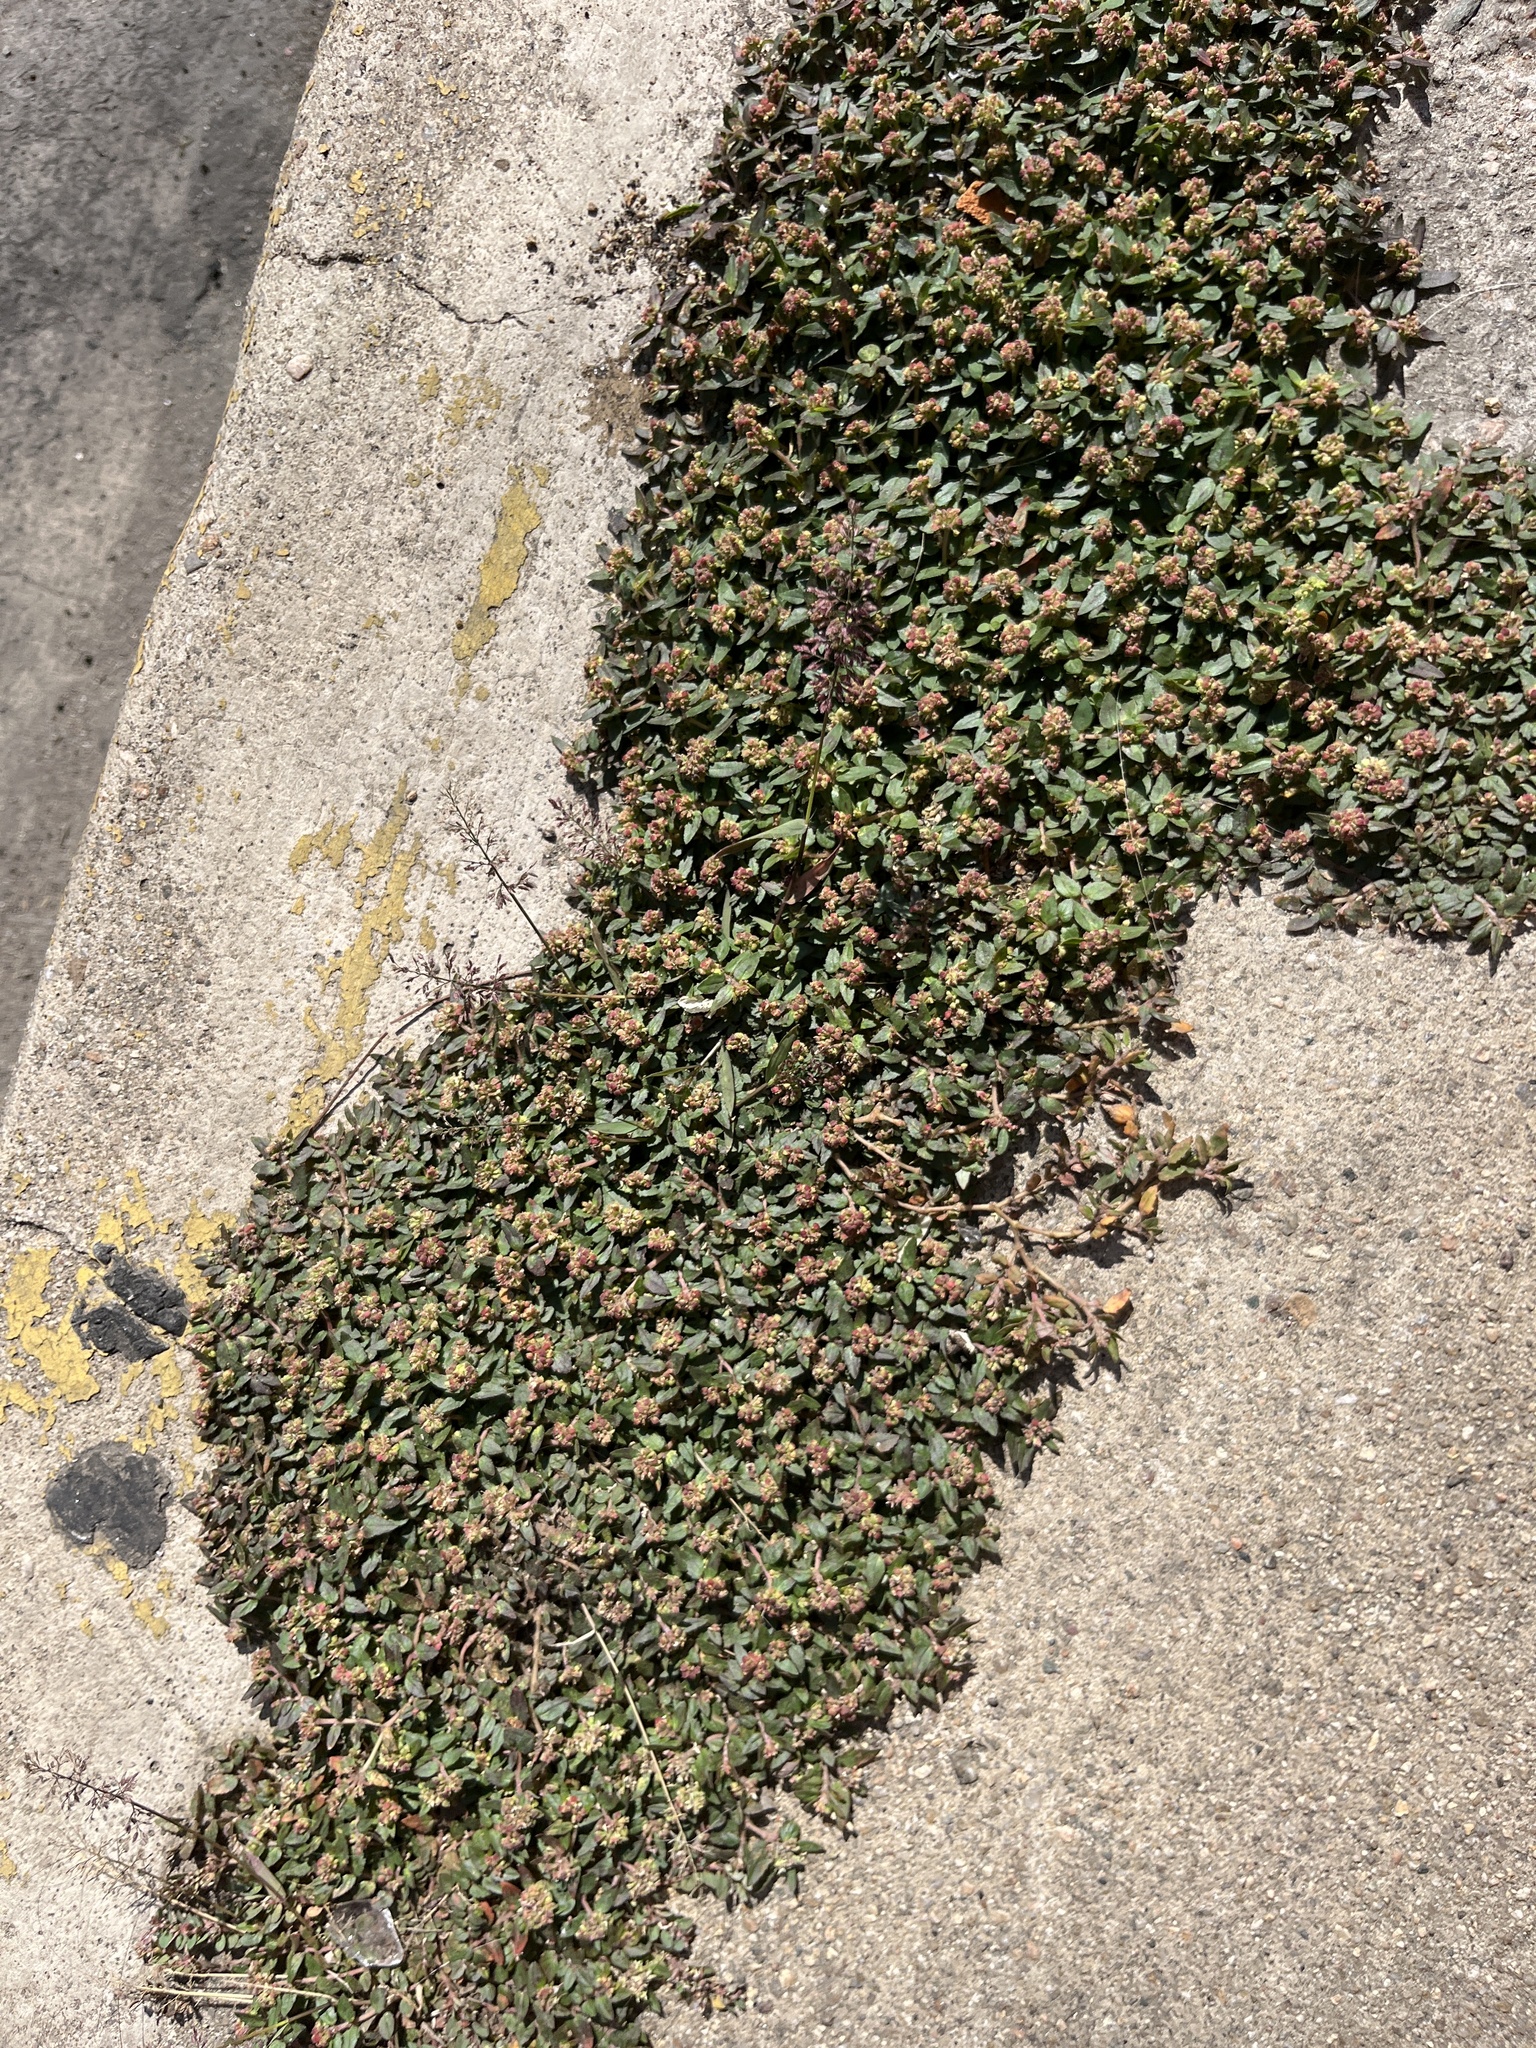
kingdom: Plantae
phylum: Tracheophyta
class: Magnoliopsida
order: Malpighiales
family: Euphorbiaceae
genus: Euphorbia
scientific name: Euphorbia ophthalmica
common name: Florida hammock sandmat
